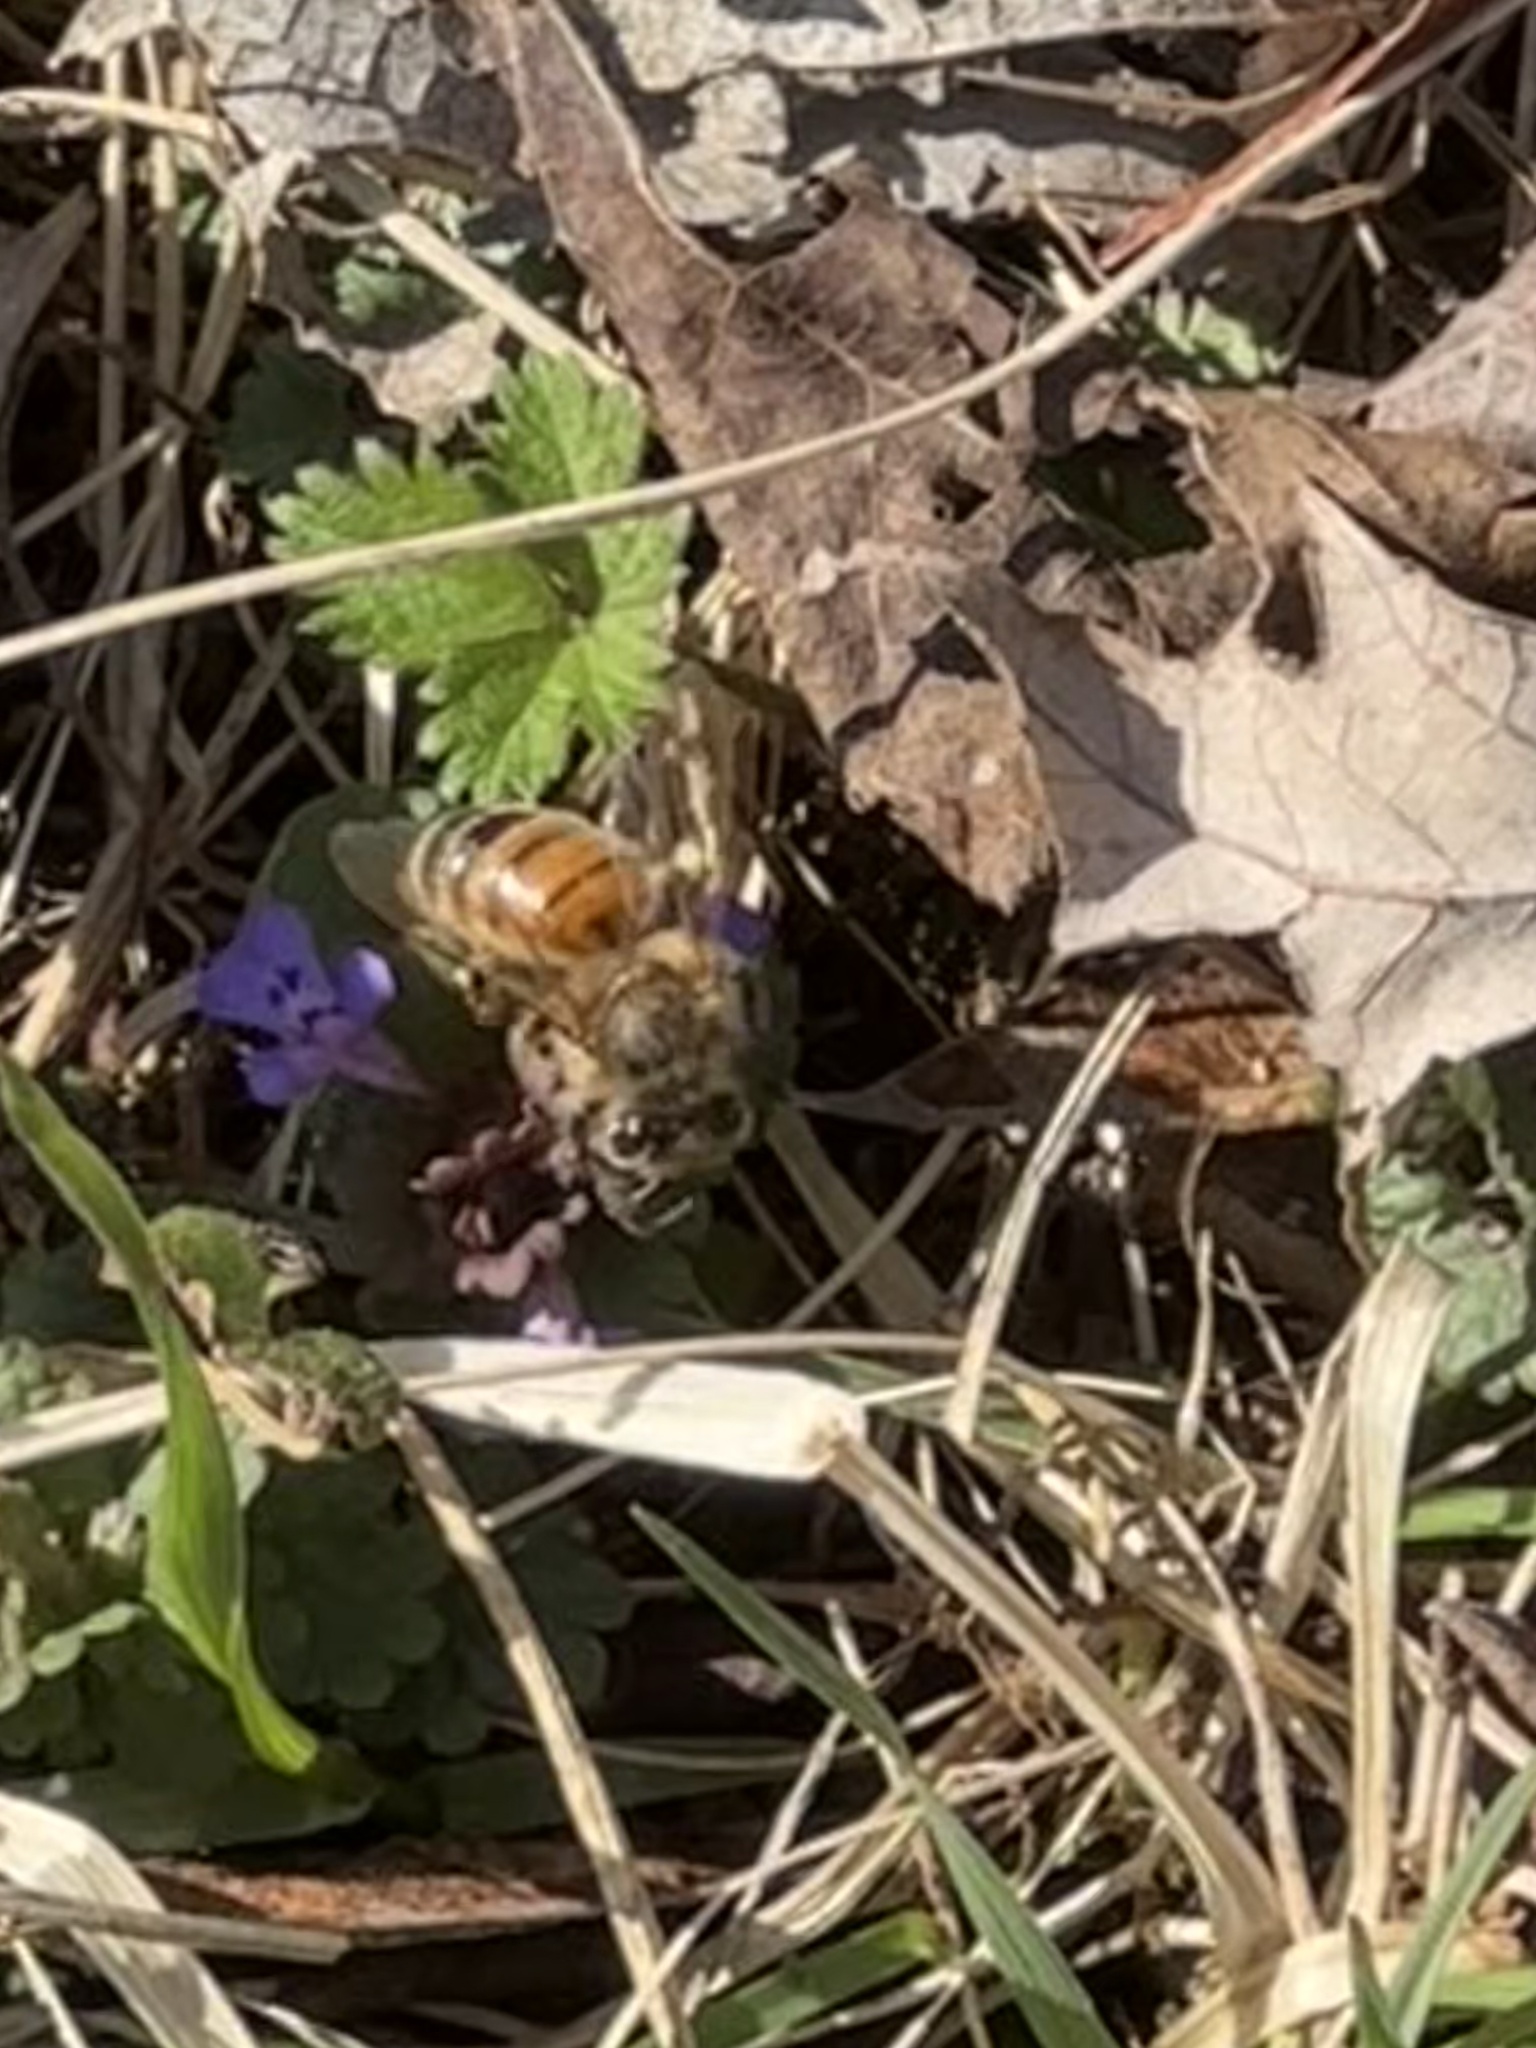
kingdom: Animalia
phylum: Arthropoda
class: Insecta
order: Hymenoptera
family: Apidae
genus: Apis
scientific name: Apis mellifera
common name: Honey bee
